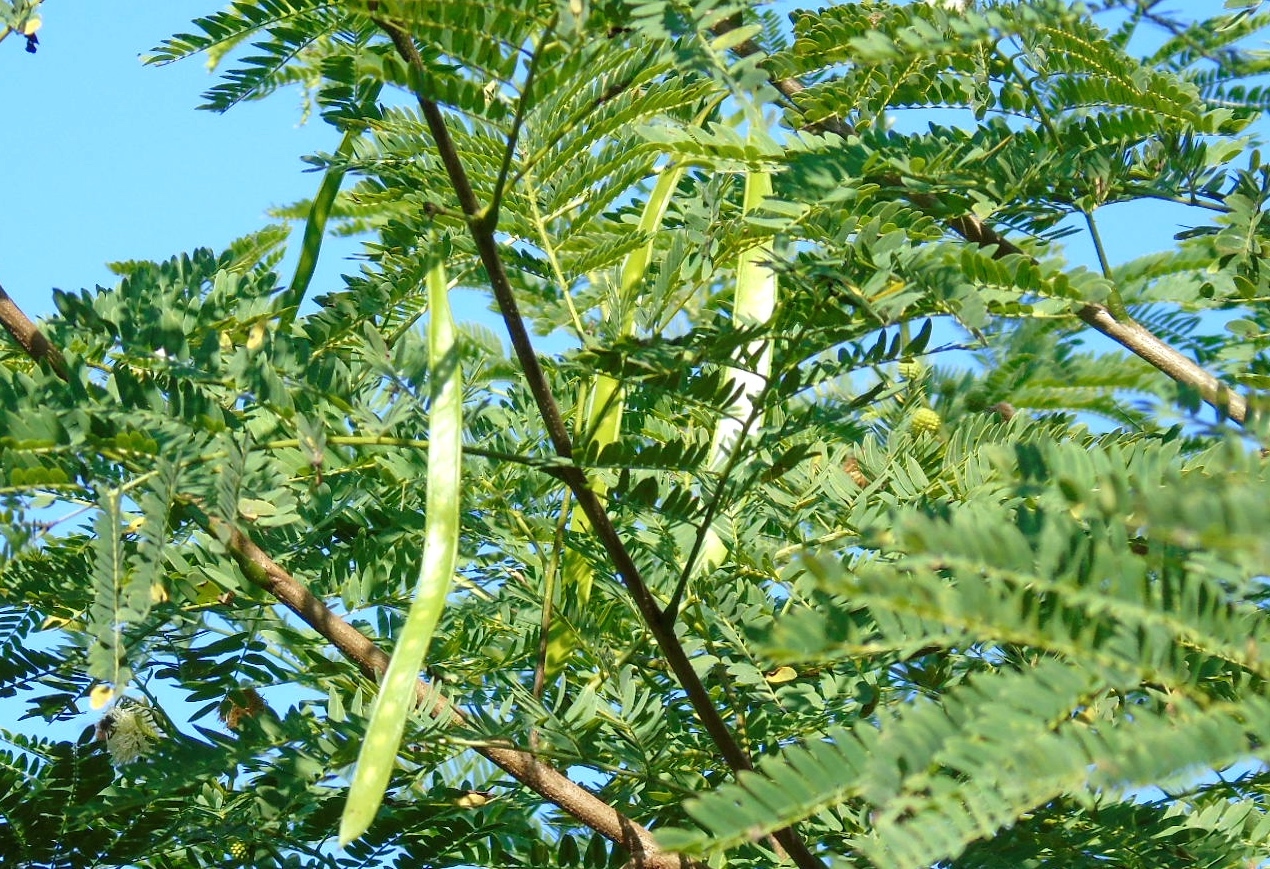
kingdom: Plantae
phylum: Tracheophyta
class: Magnoliopsida
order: Fabales
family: Fabaceae
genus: Leucaena
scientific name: Leucaena leucocephala
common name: White leadtree
